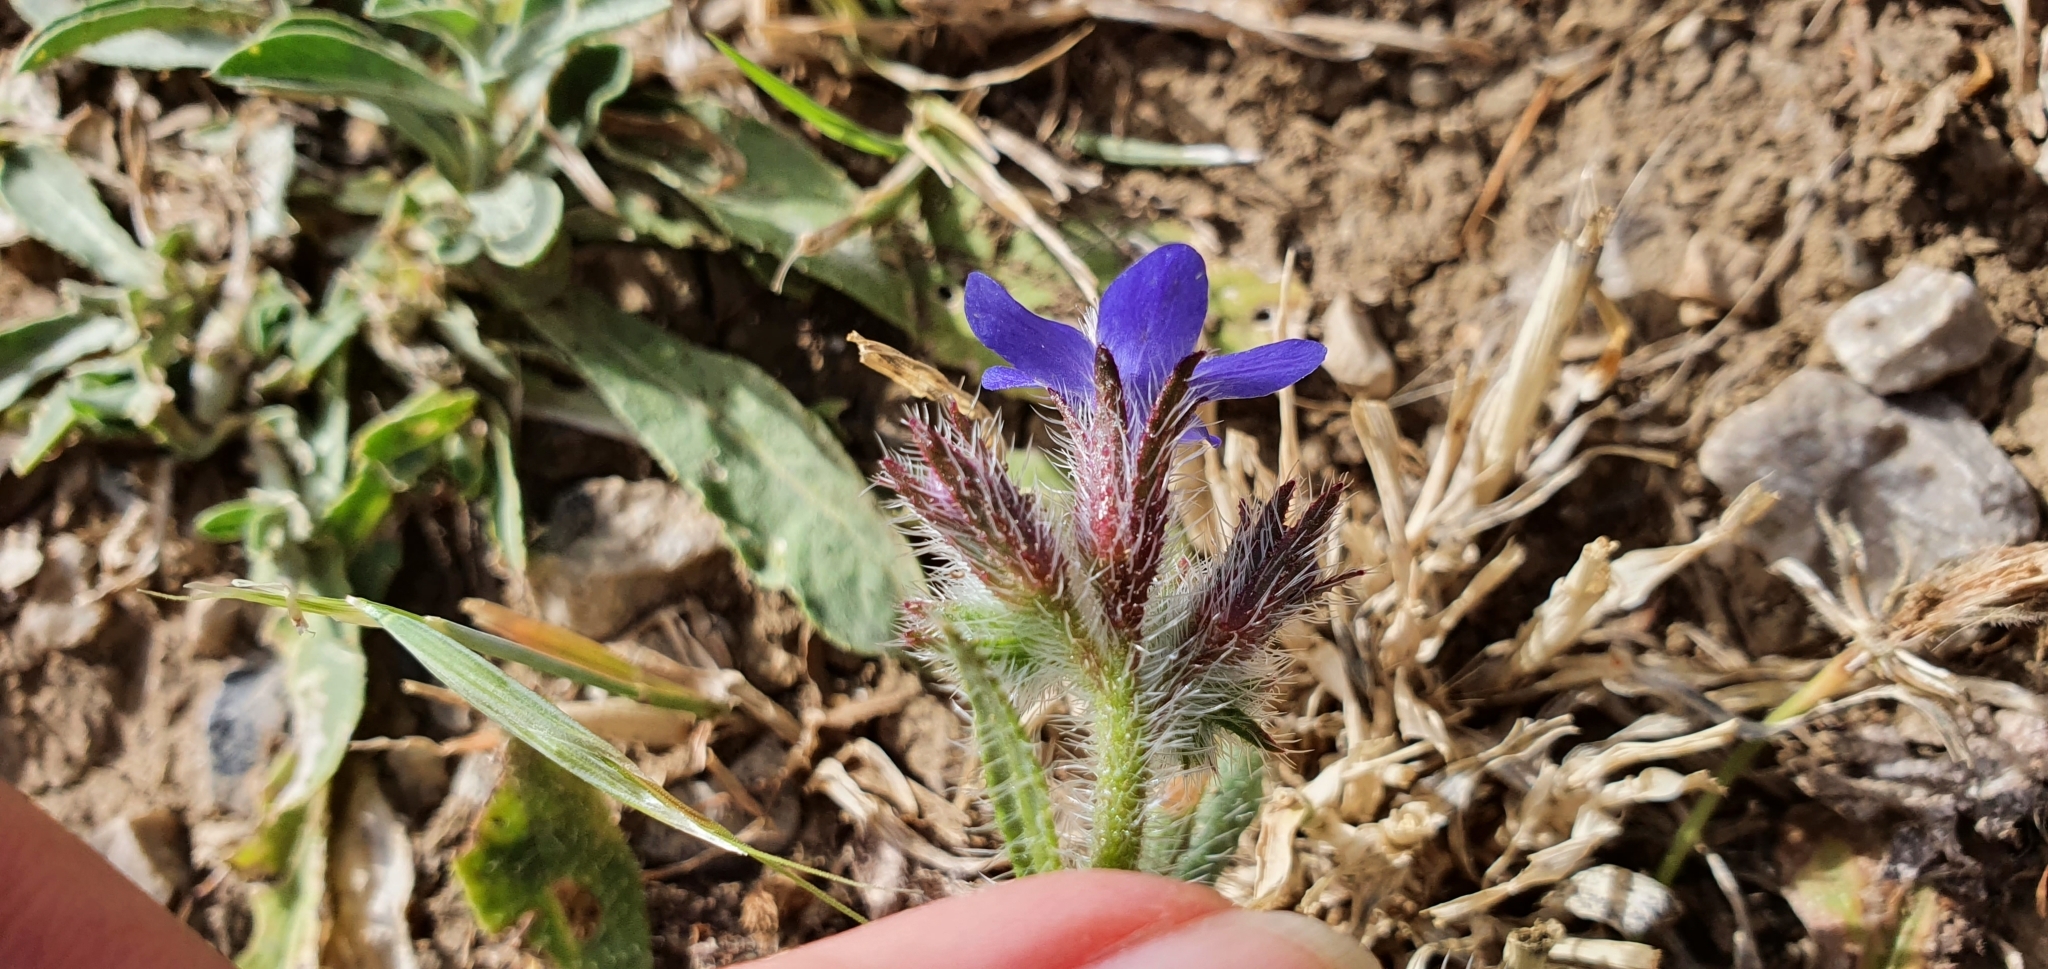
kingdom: Plantae
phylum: Tracheophyta
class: Magnoliopsida
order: Boraginales
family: Boraginaceae
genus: Anchusa
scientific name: Anchusa azurea
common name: Garden anchusa
